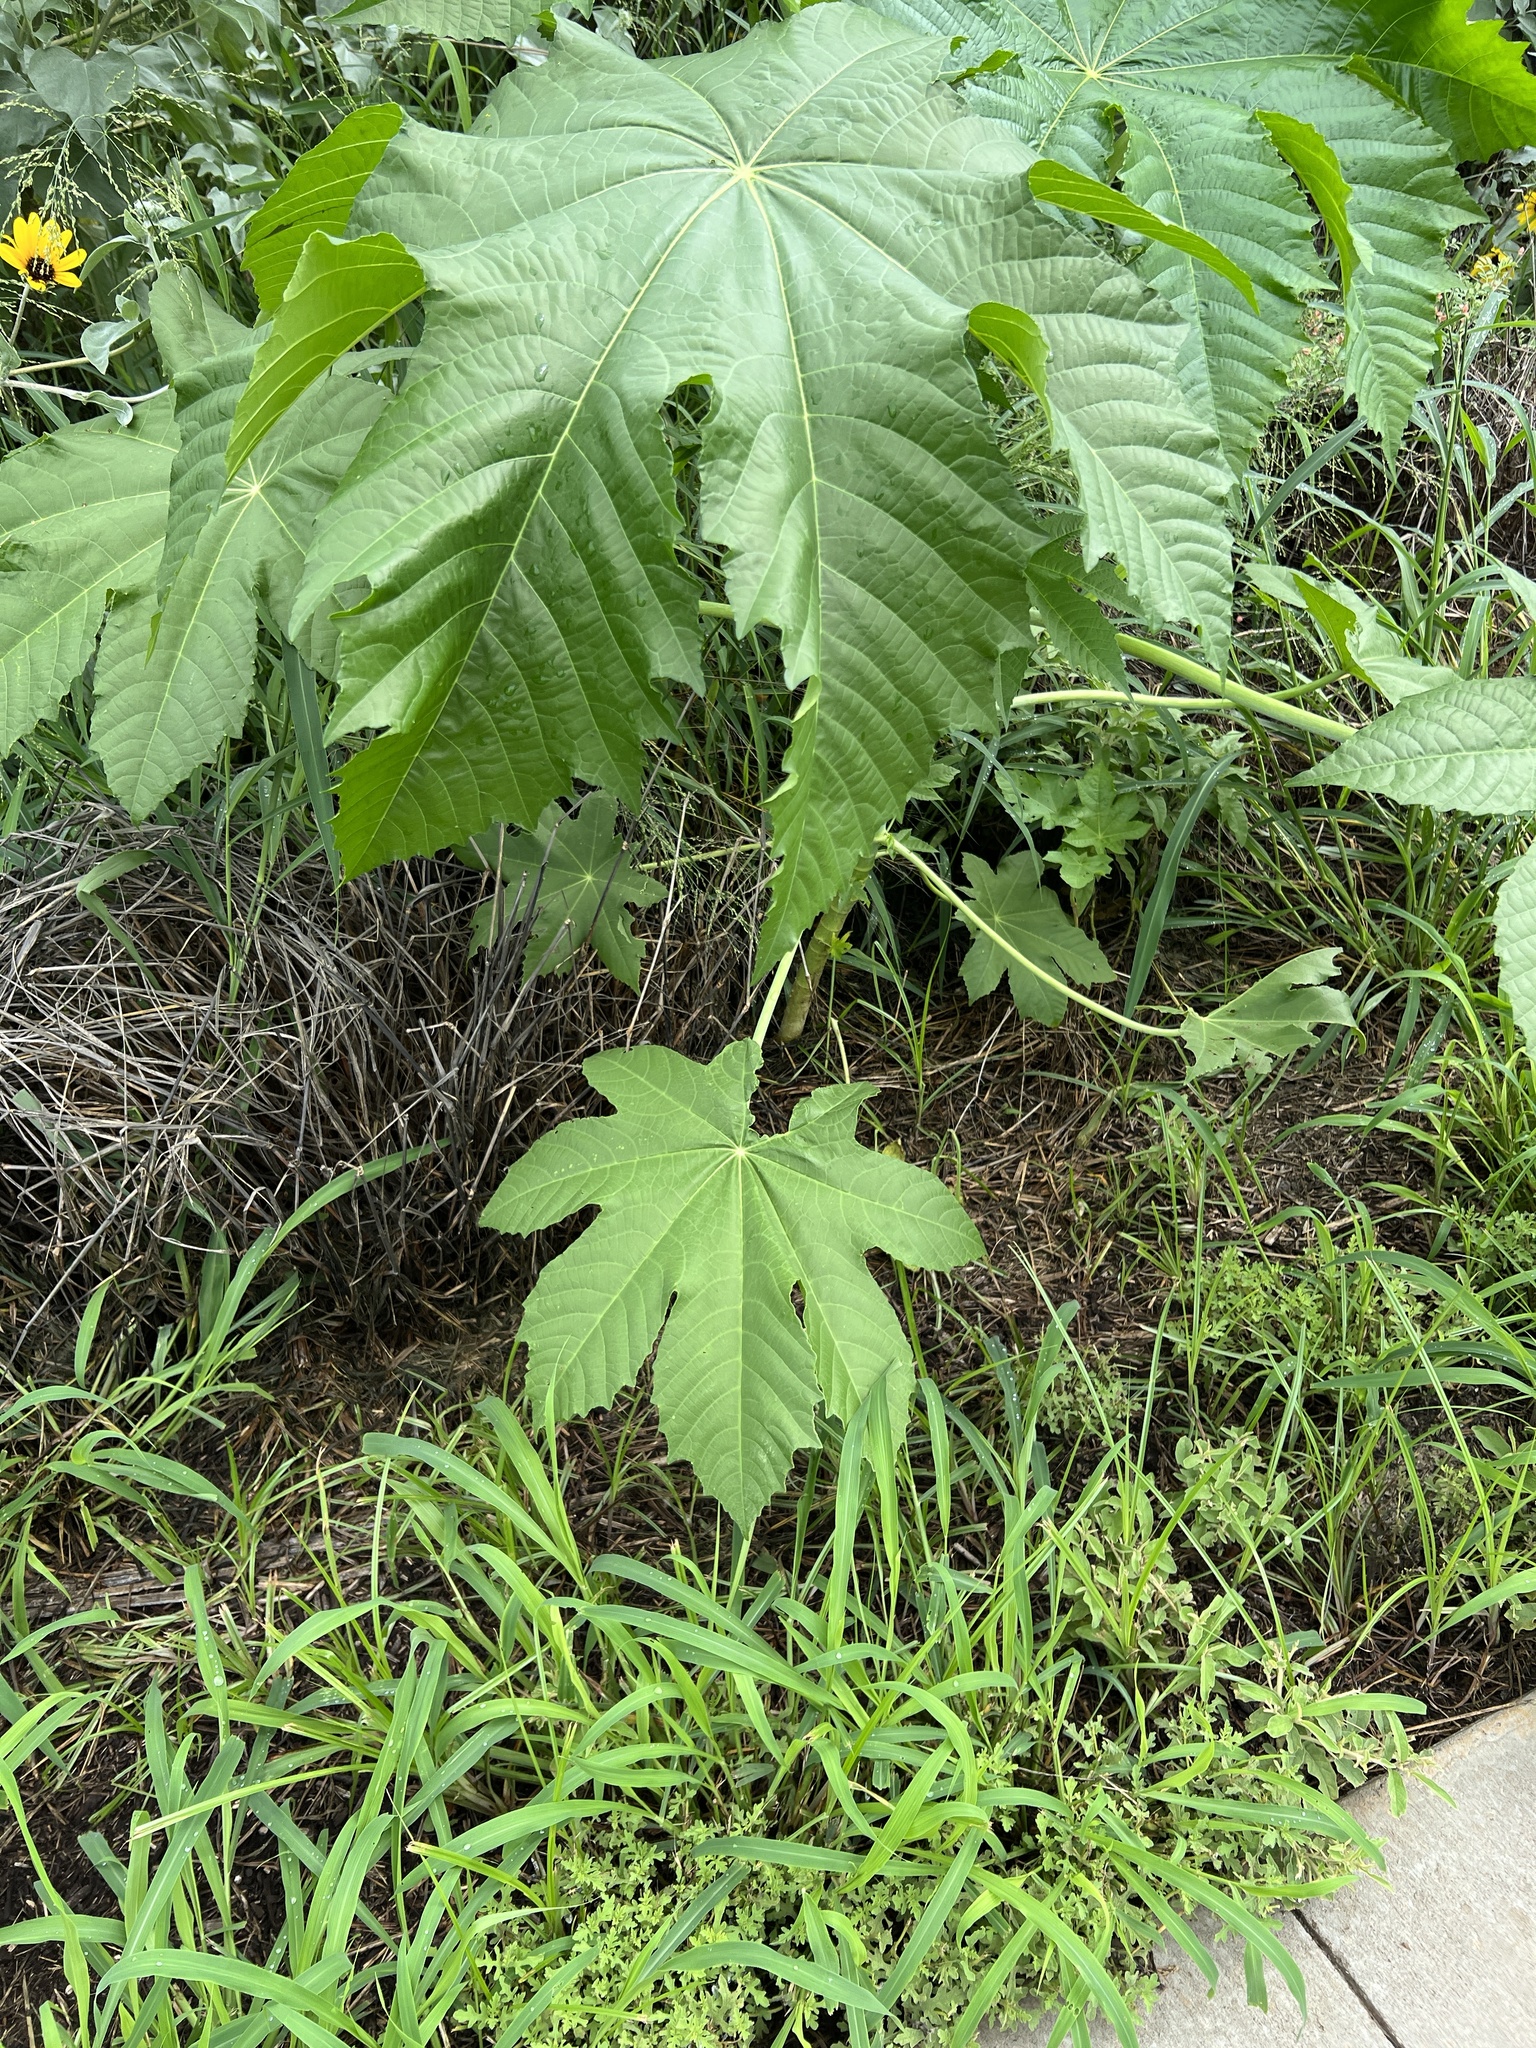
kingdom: Plantae
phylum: Tracheophyta
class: Magnoliopsida
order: Malpighiales
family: Euphorbiaceae
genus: Ricinus
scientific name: Ricinus communis
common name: Castor-oil-plant
